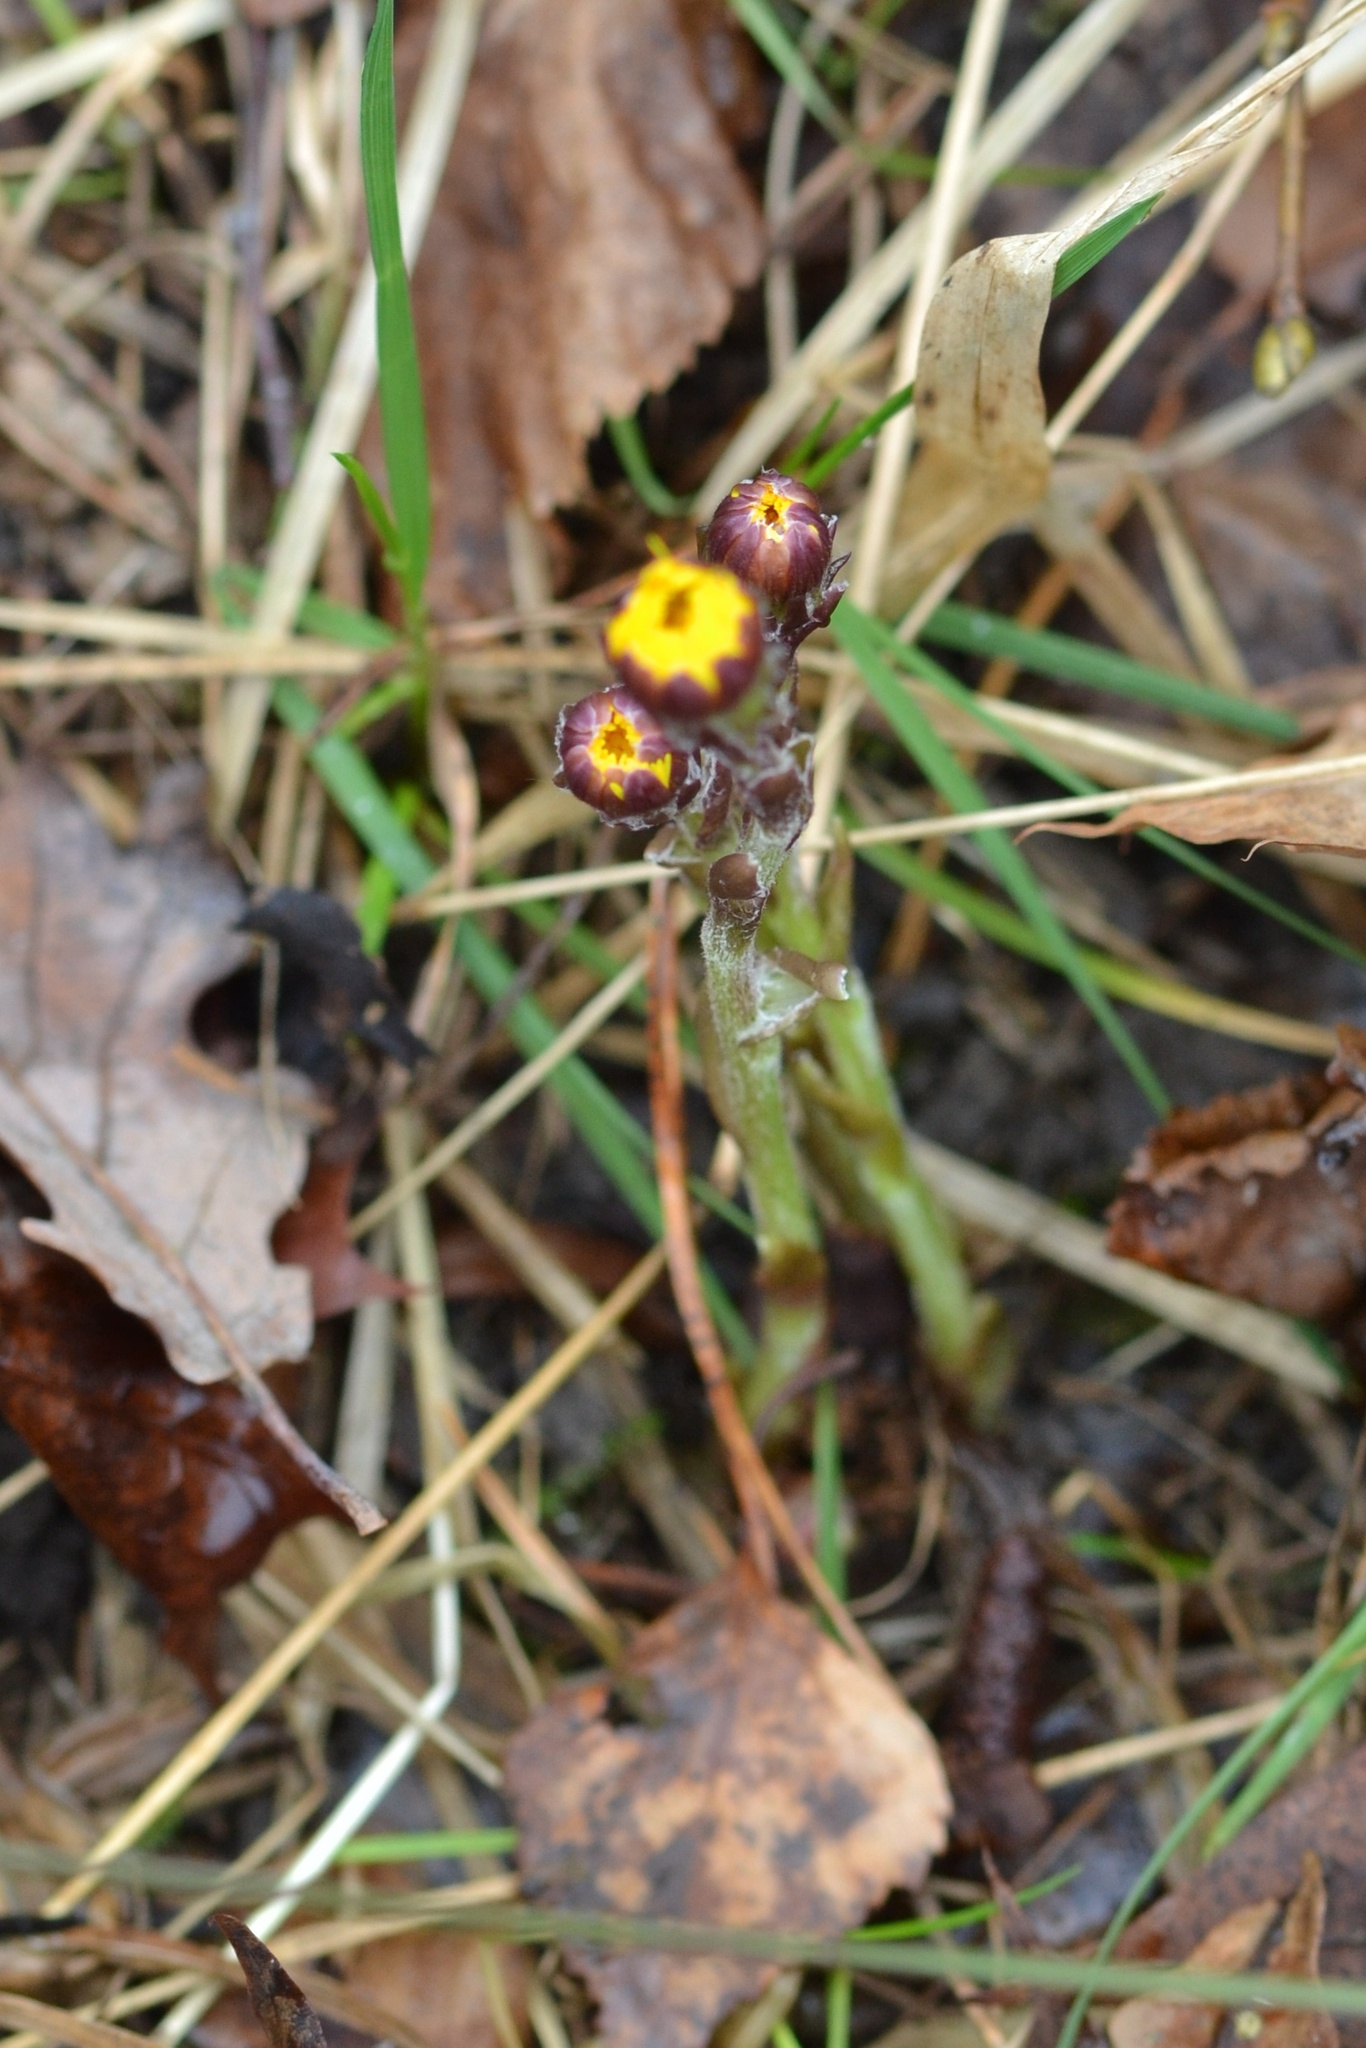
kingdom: Plantae
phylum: Tracheophyta
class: Magnoliopsida
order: Asterales
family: Asteraceae
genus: Tussilago
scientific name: Tussilago farfara
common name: Coltsfoot
